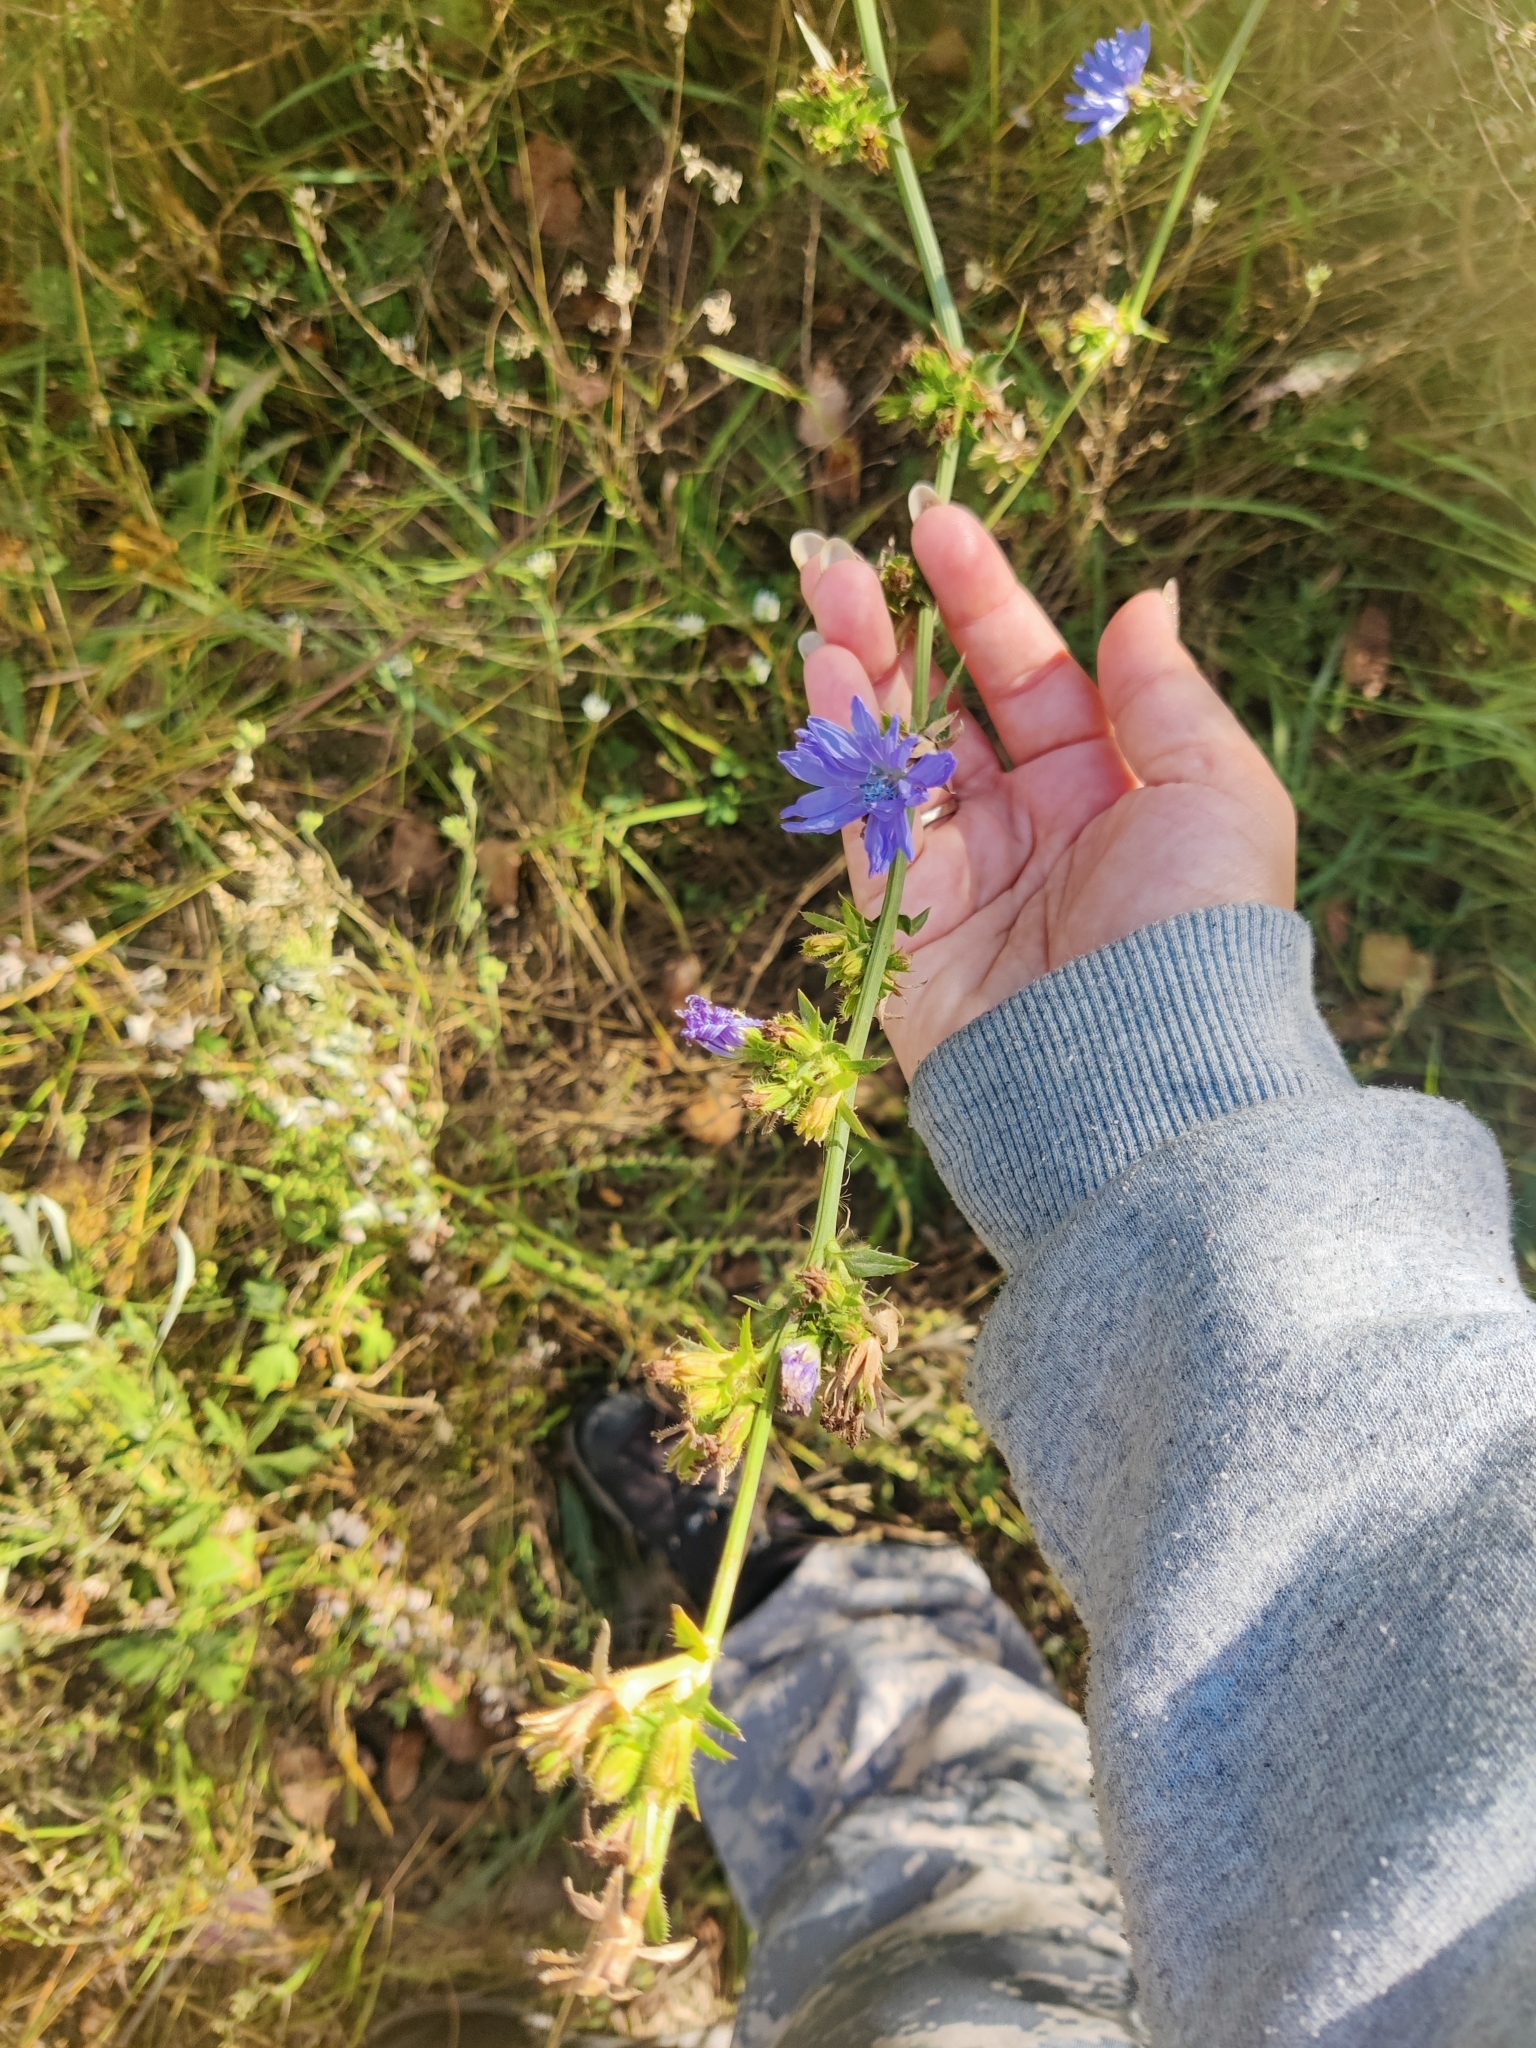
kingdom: Plantae
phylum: Tracheophyta
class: Magnoliopsida
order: Asterales
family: Asteraceae
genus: Cichorium
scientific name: Cichorium intybus
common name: Chicory
